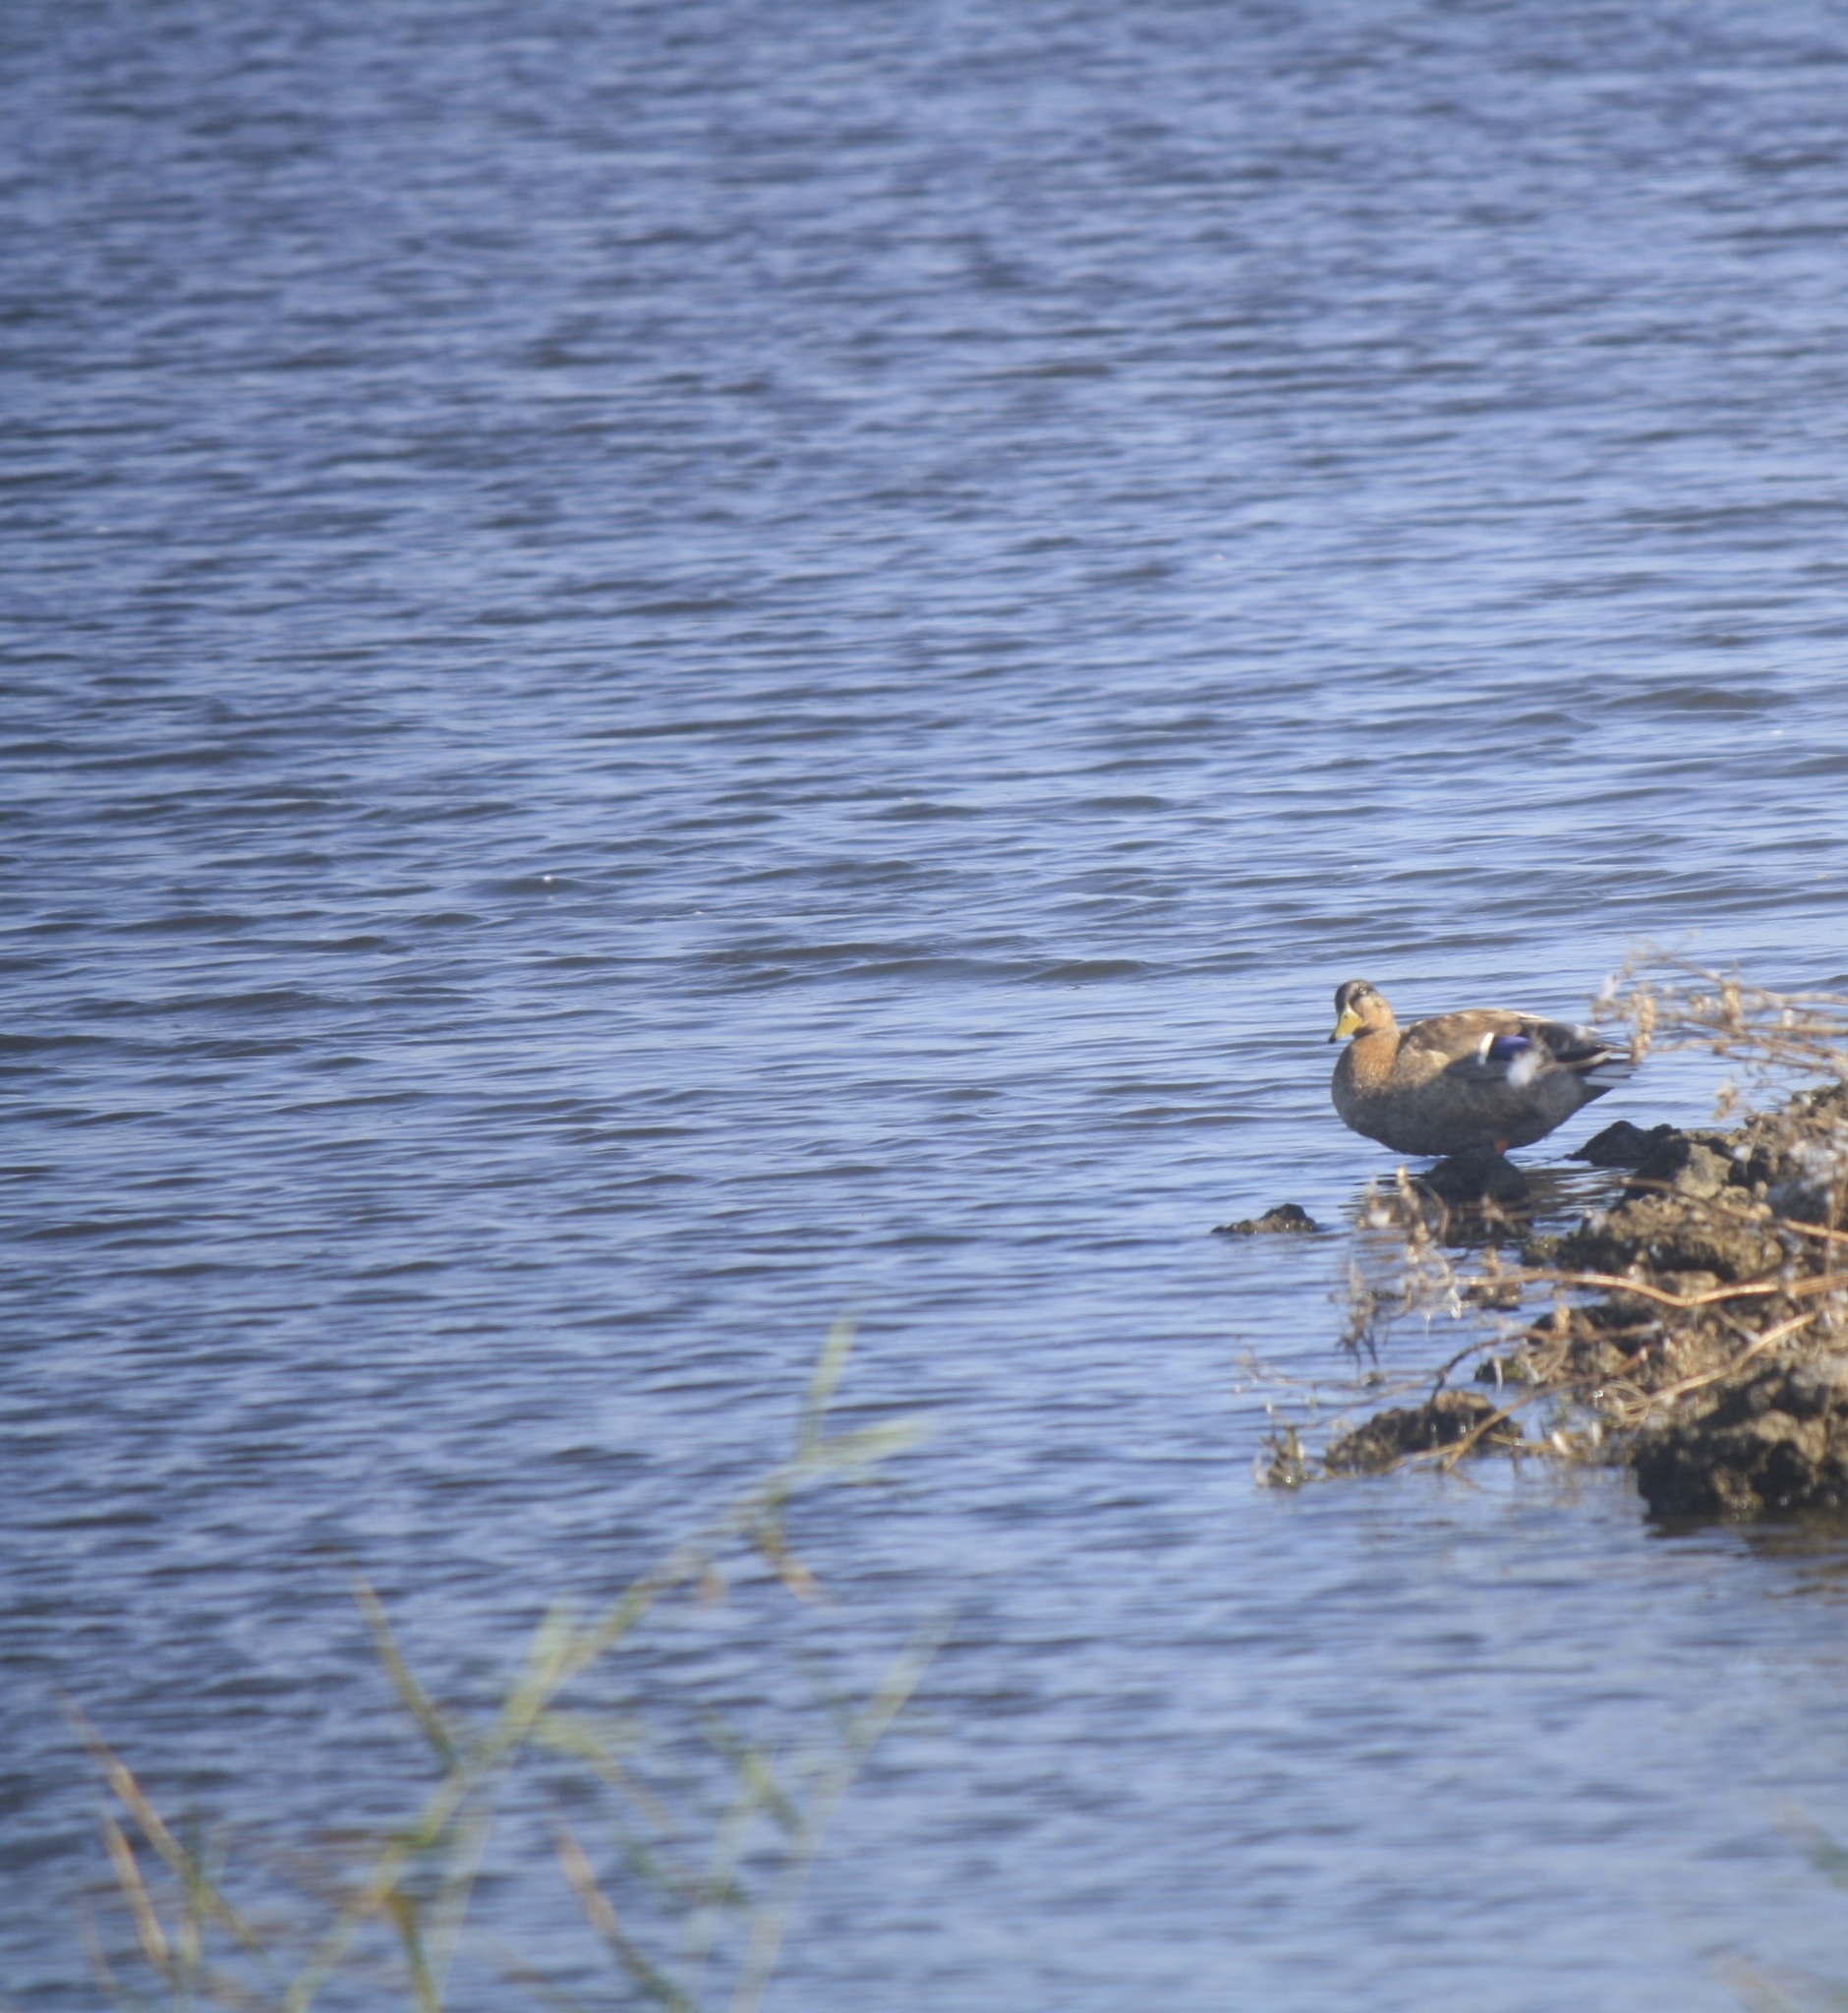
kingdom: Animalia
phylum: Chordata
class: Aves
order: Anseriformes
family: Anatidae
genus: Anas
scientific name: Anas platyrhynchos
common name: Mallard
